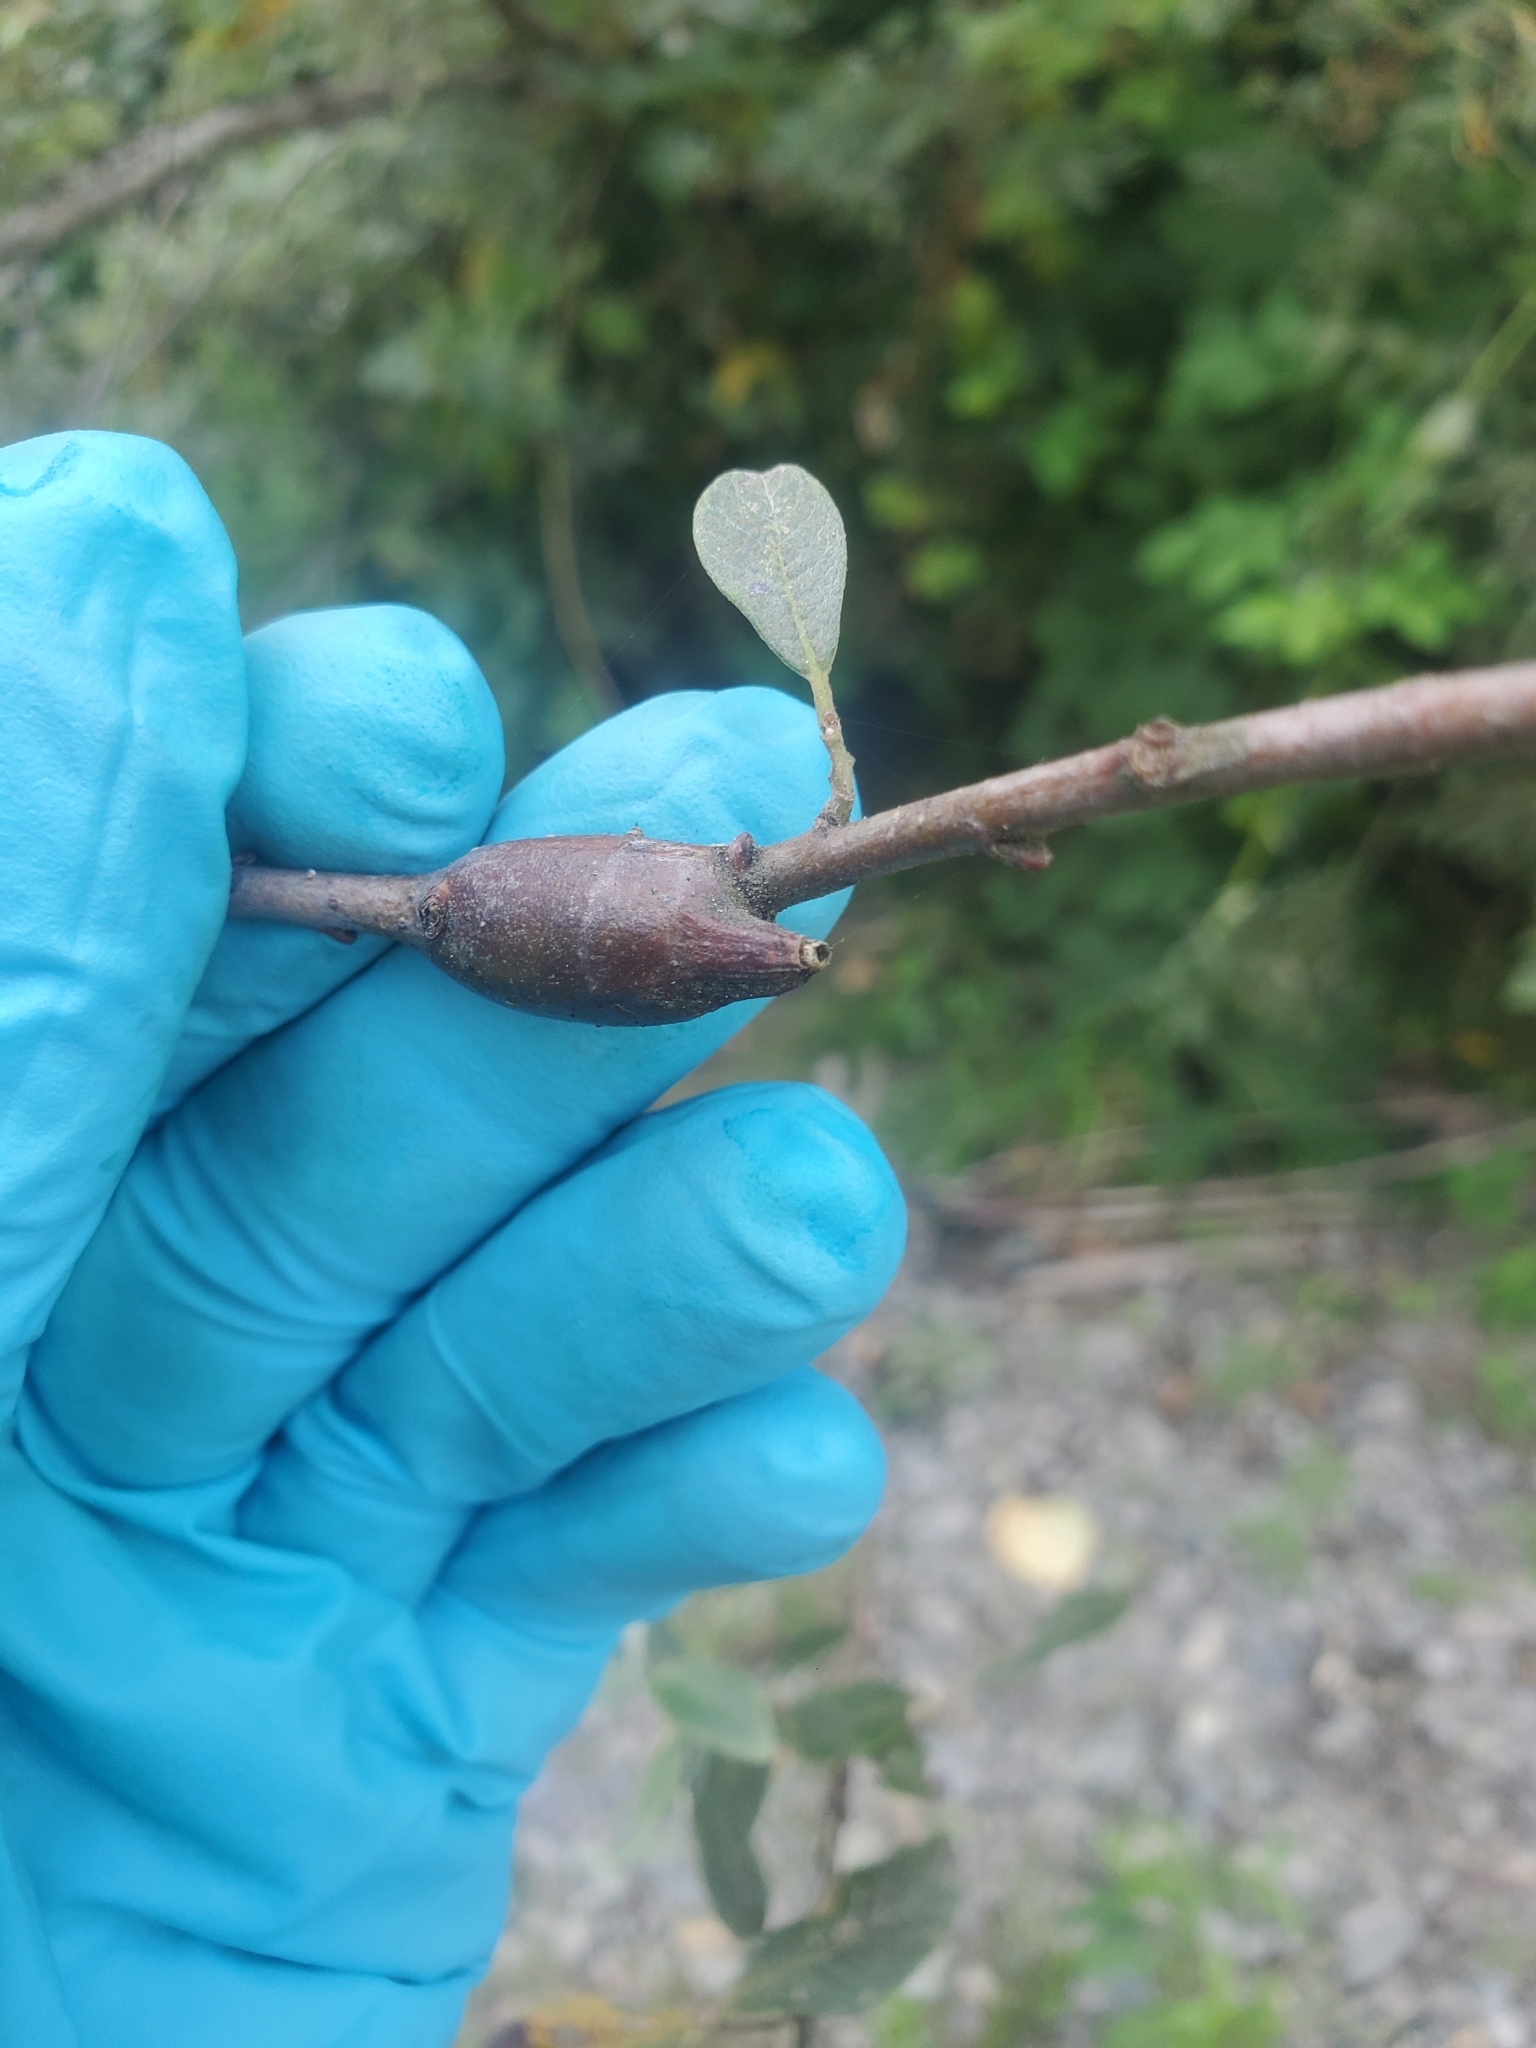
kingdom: Animalia
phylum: Arthropoda
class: Insecta
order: Diptera
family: Cecidomyiidae
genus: Thecodiplosis
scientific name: Thecodiplosis pinirigidae
